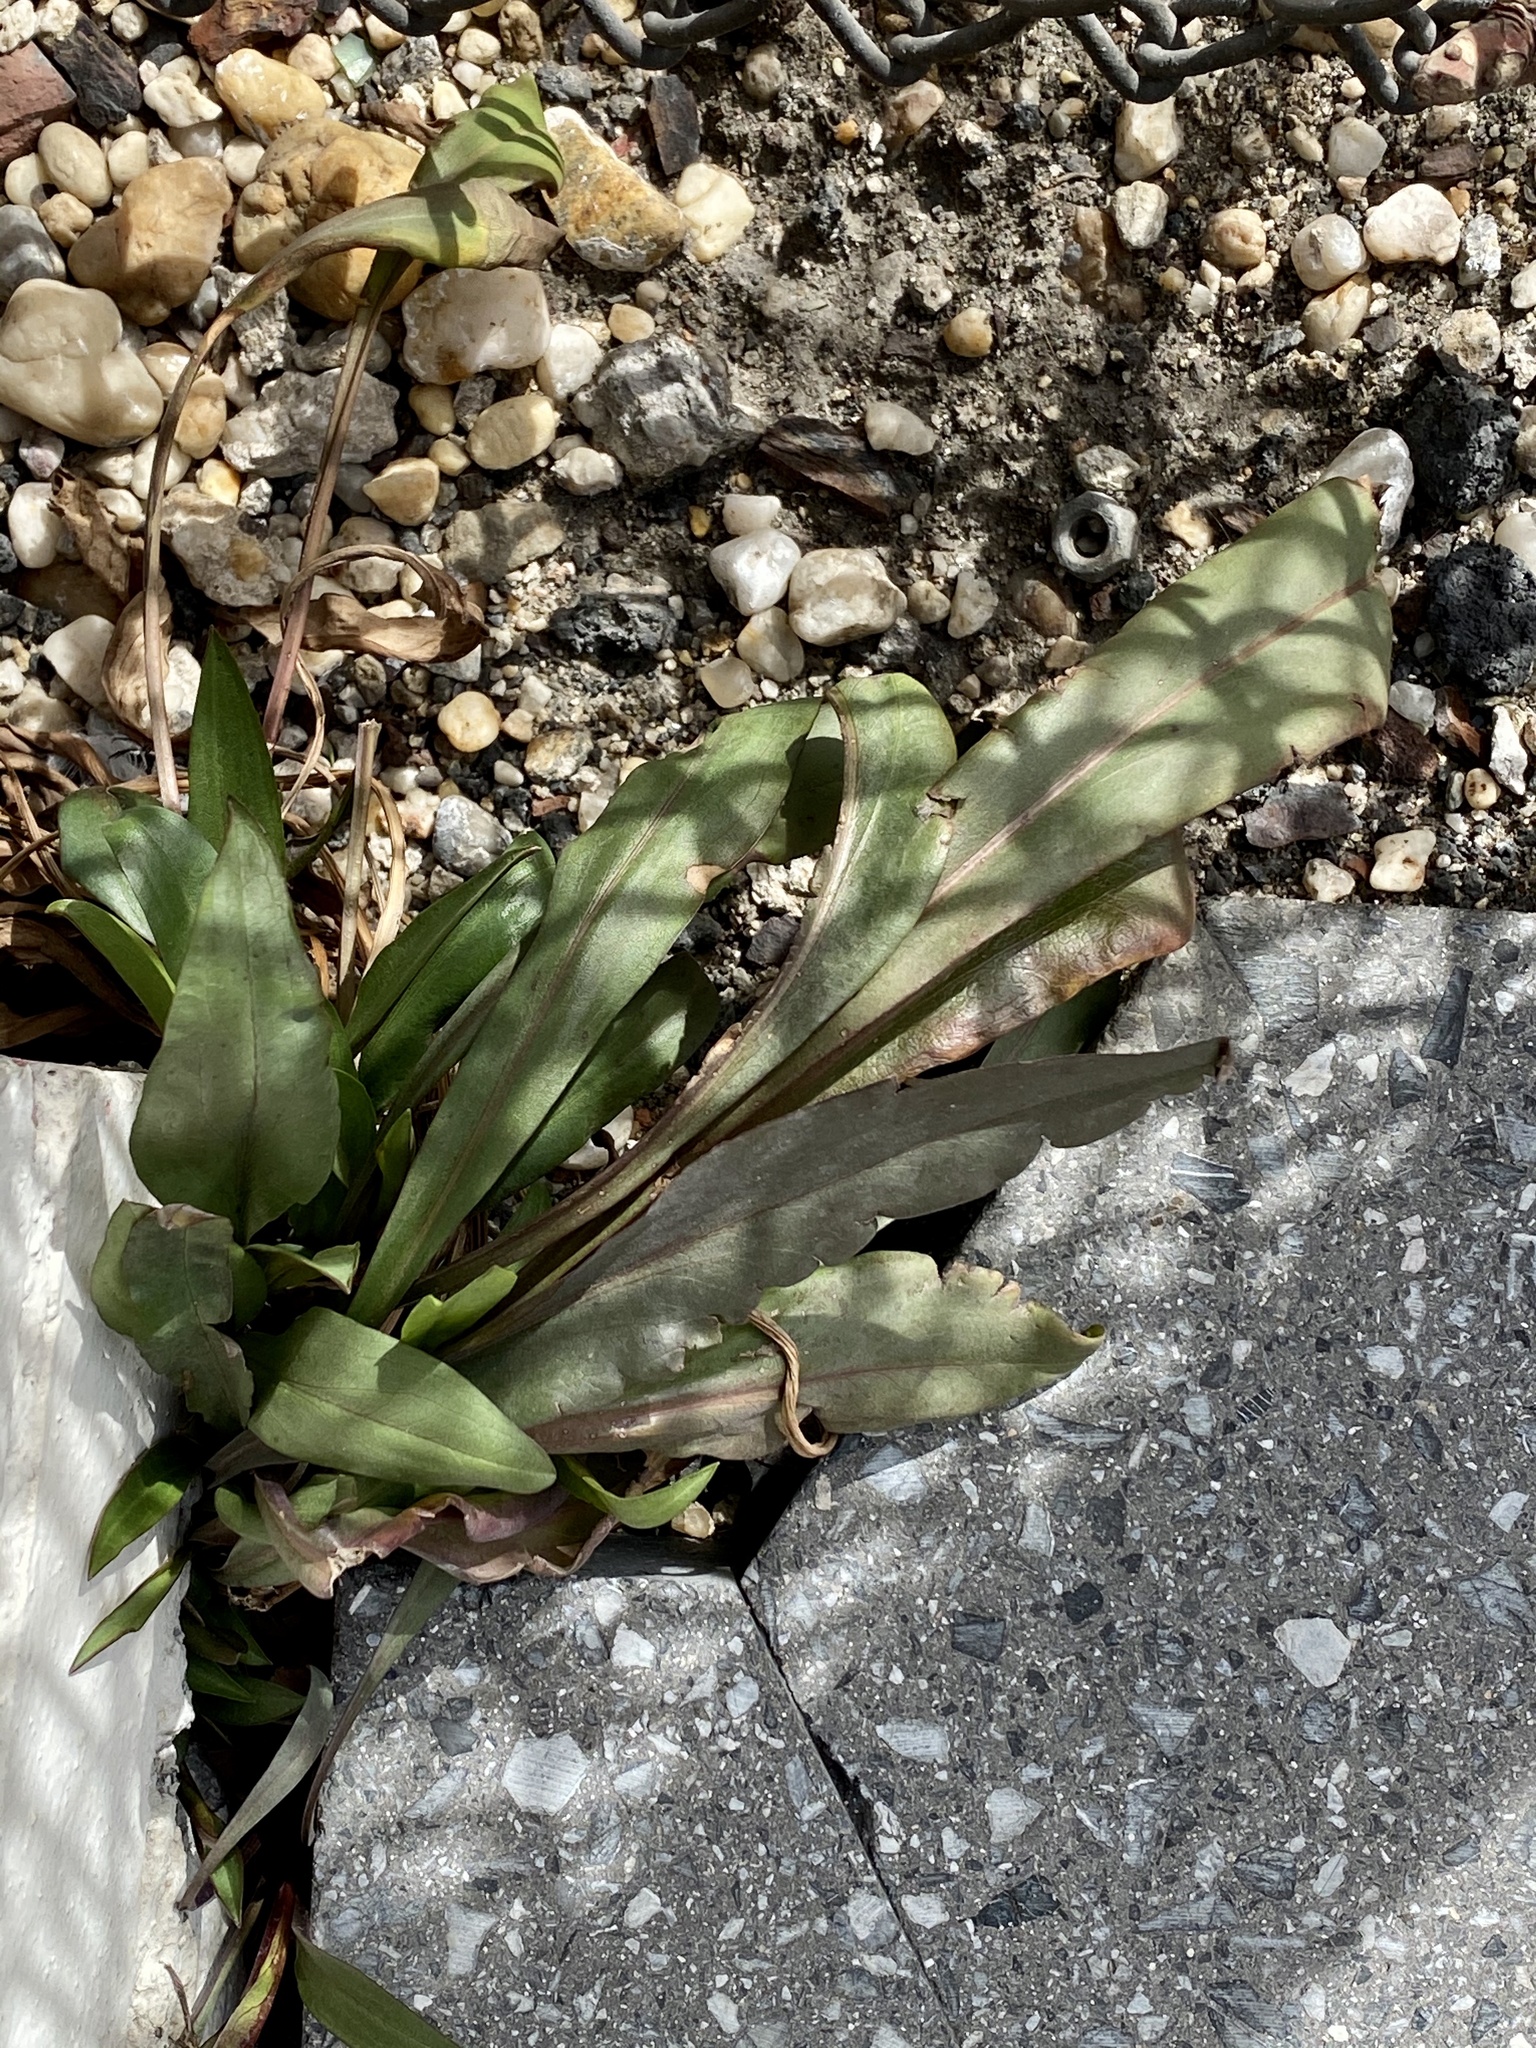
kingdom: Plantae
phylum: Tracheophyta
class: Magnoliopsida
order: Asterales
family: Asteraceae
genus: Solidago
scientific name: Solidago sempervirens
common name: Salt-marsh goldenrod
